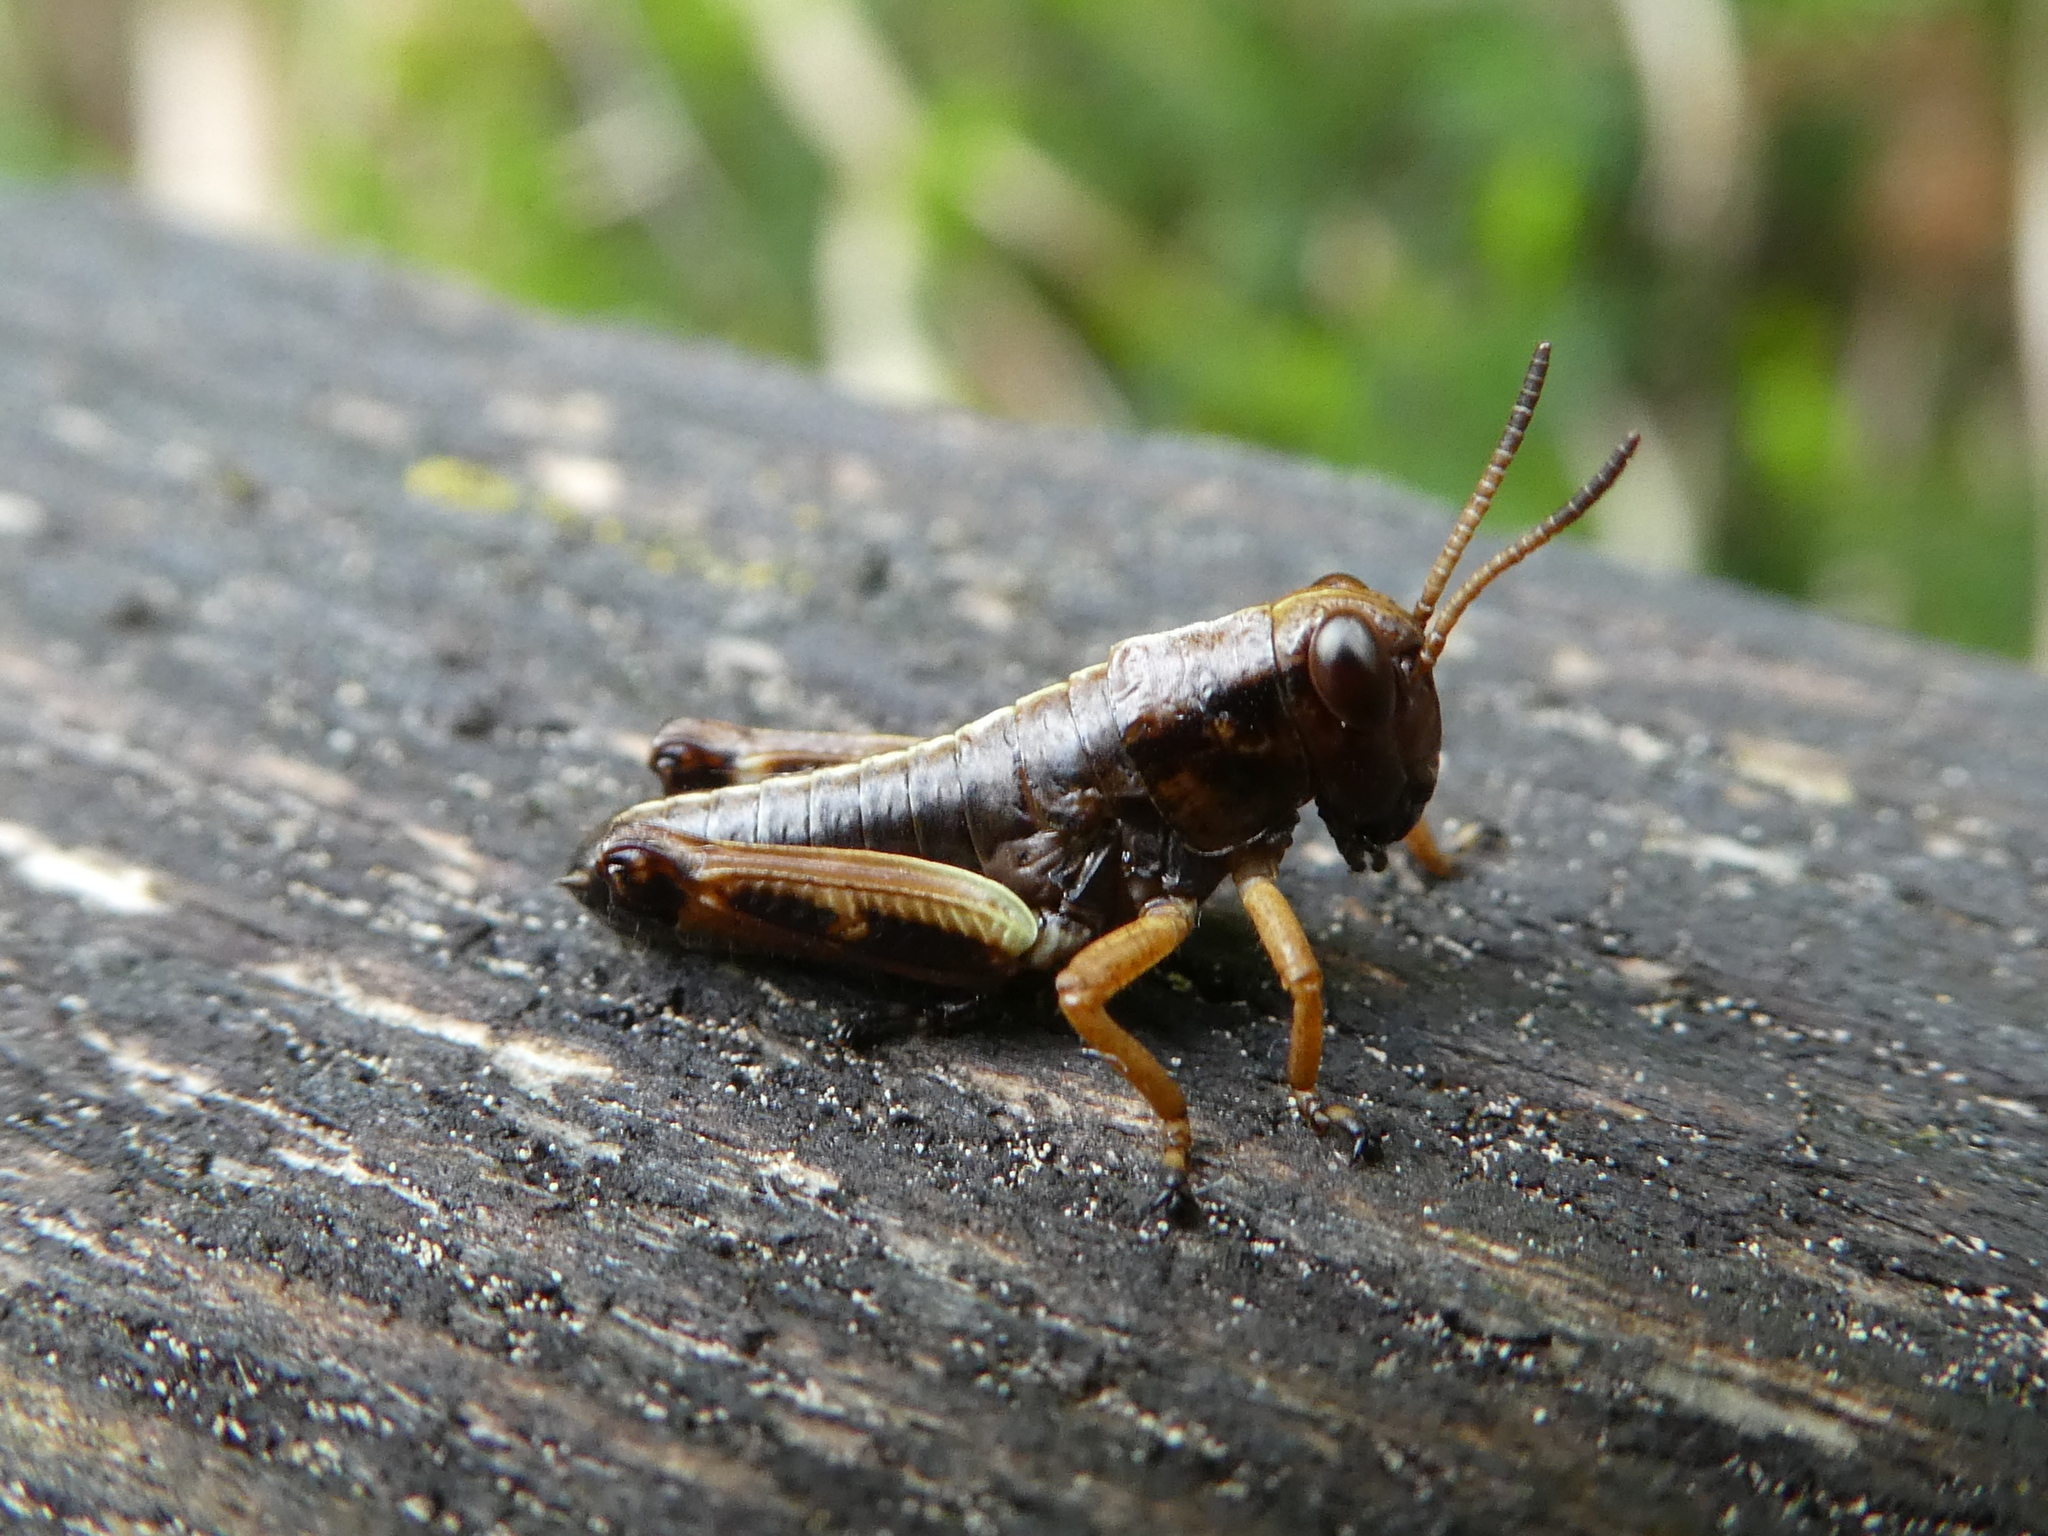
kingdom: Animalia
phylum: Arthropoda
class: Insecta
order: Orthoptera
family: Acrididae
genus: Miramella
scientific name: Miramella alpina
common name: Green mountain grasshopper
